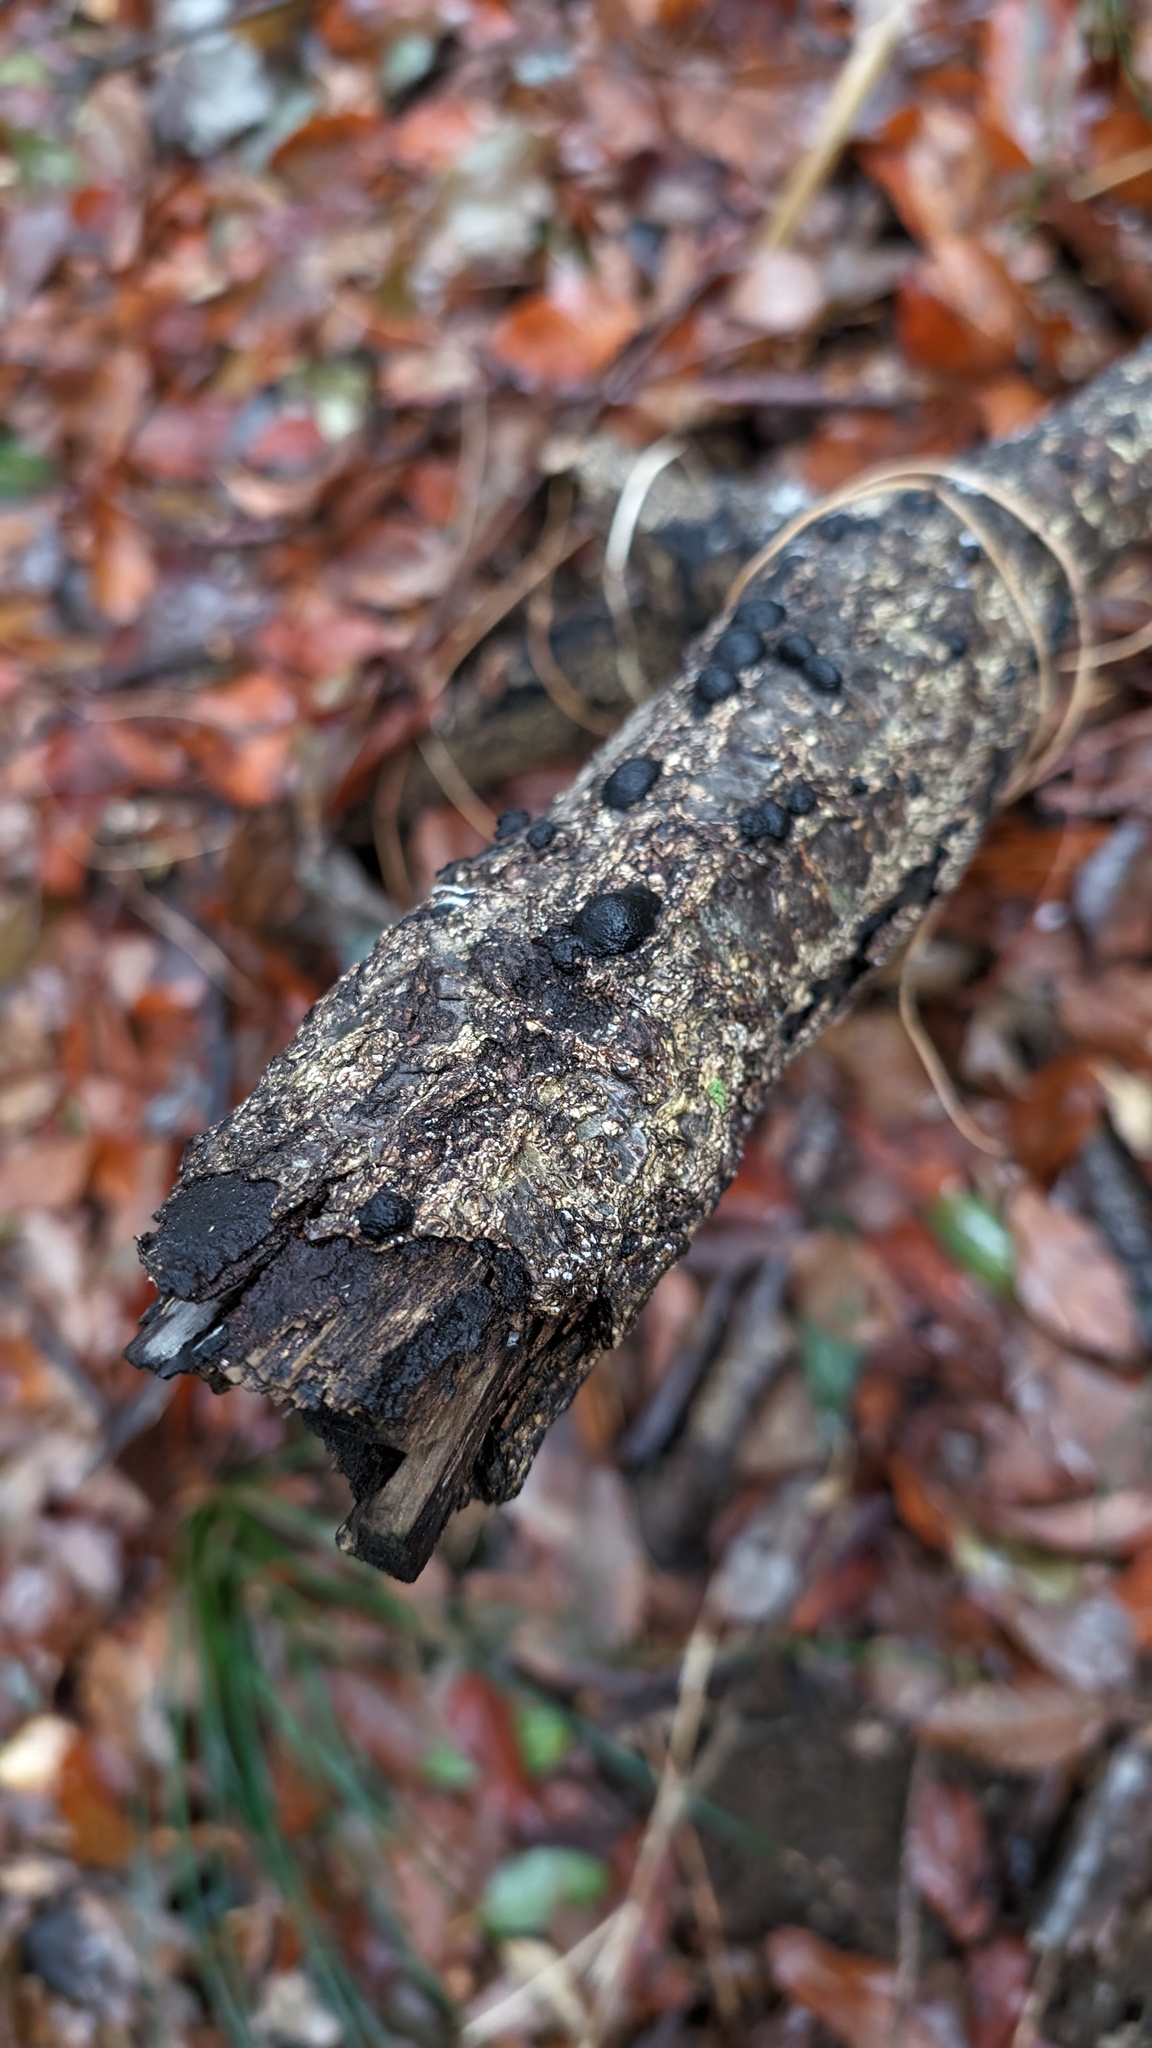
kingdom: Fungi
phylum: Ascomycota
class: Sordariomycetes
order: Xylariales
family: Hypoxylaceae
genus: Annulohypoxylon
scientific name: Annulohypoxylon truncatum
